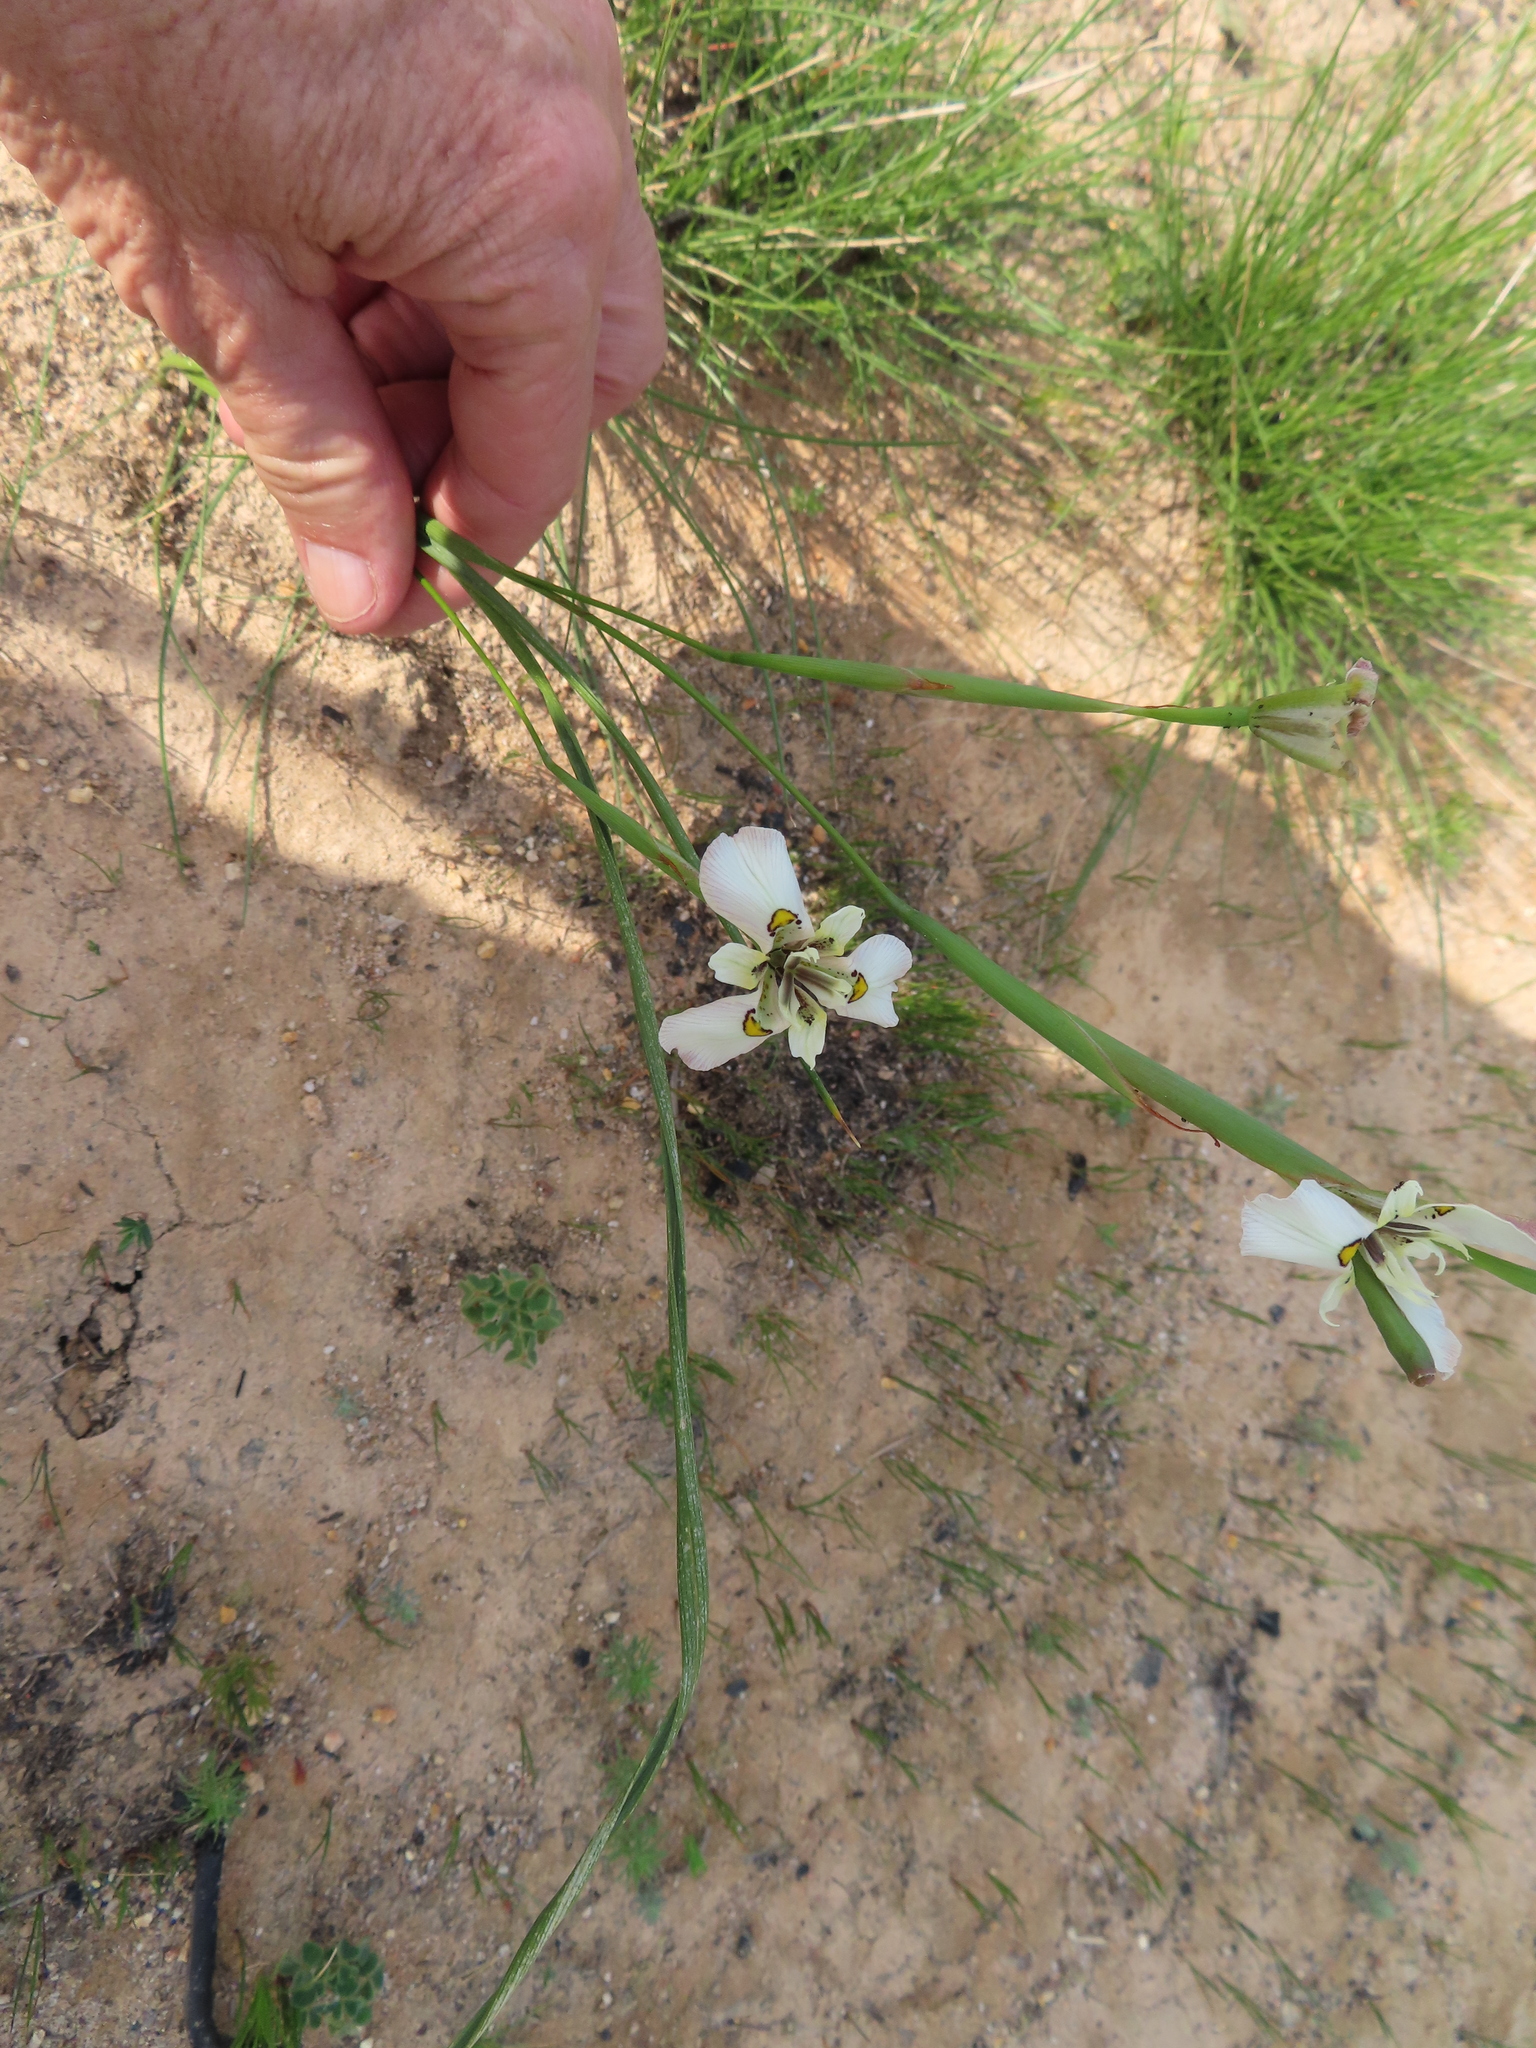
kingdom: Plantae
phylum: Tracheophyta
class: Liliopsida
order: Asparagales
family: Iridaceae
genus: Moraea
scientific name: Moraea cantharophila
